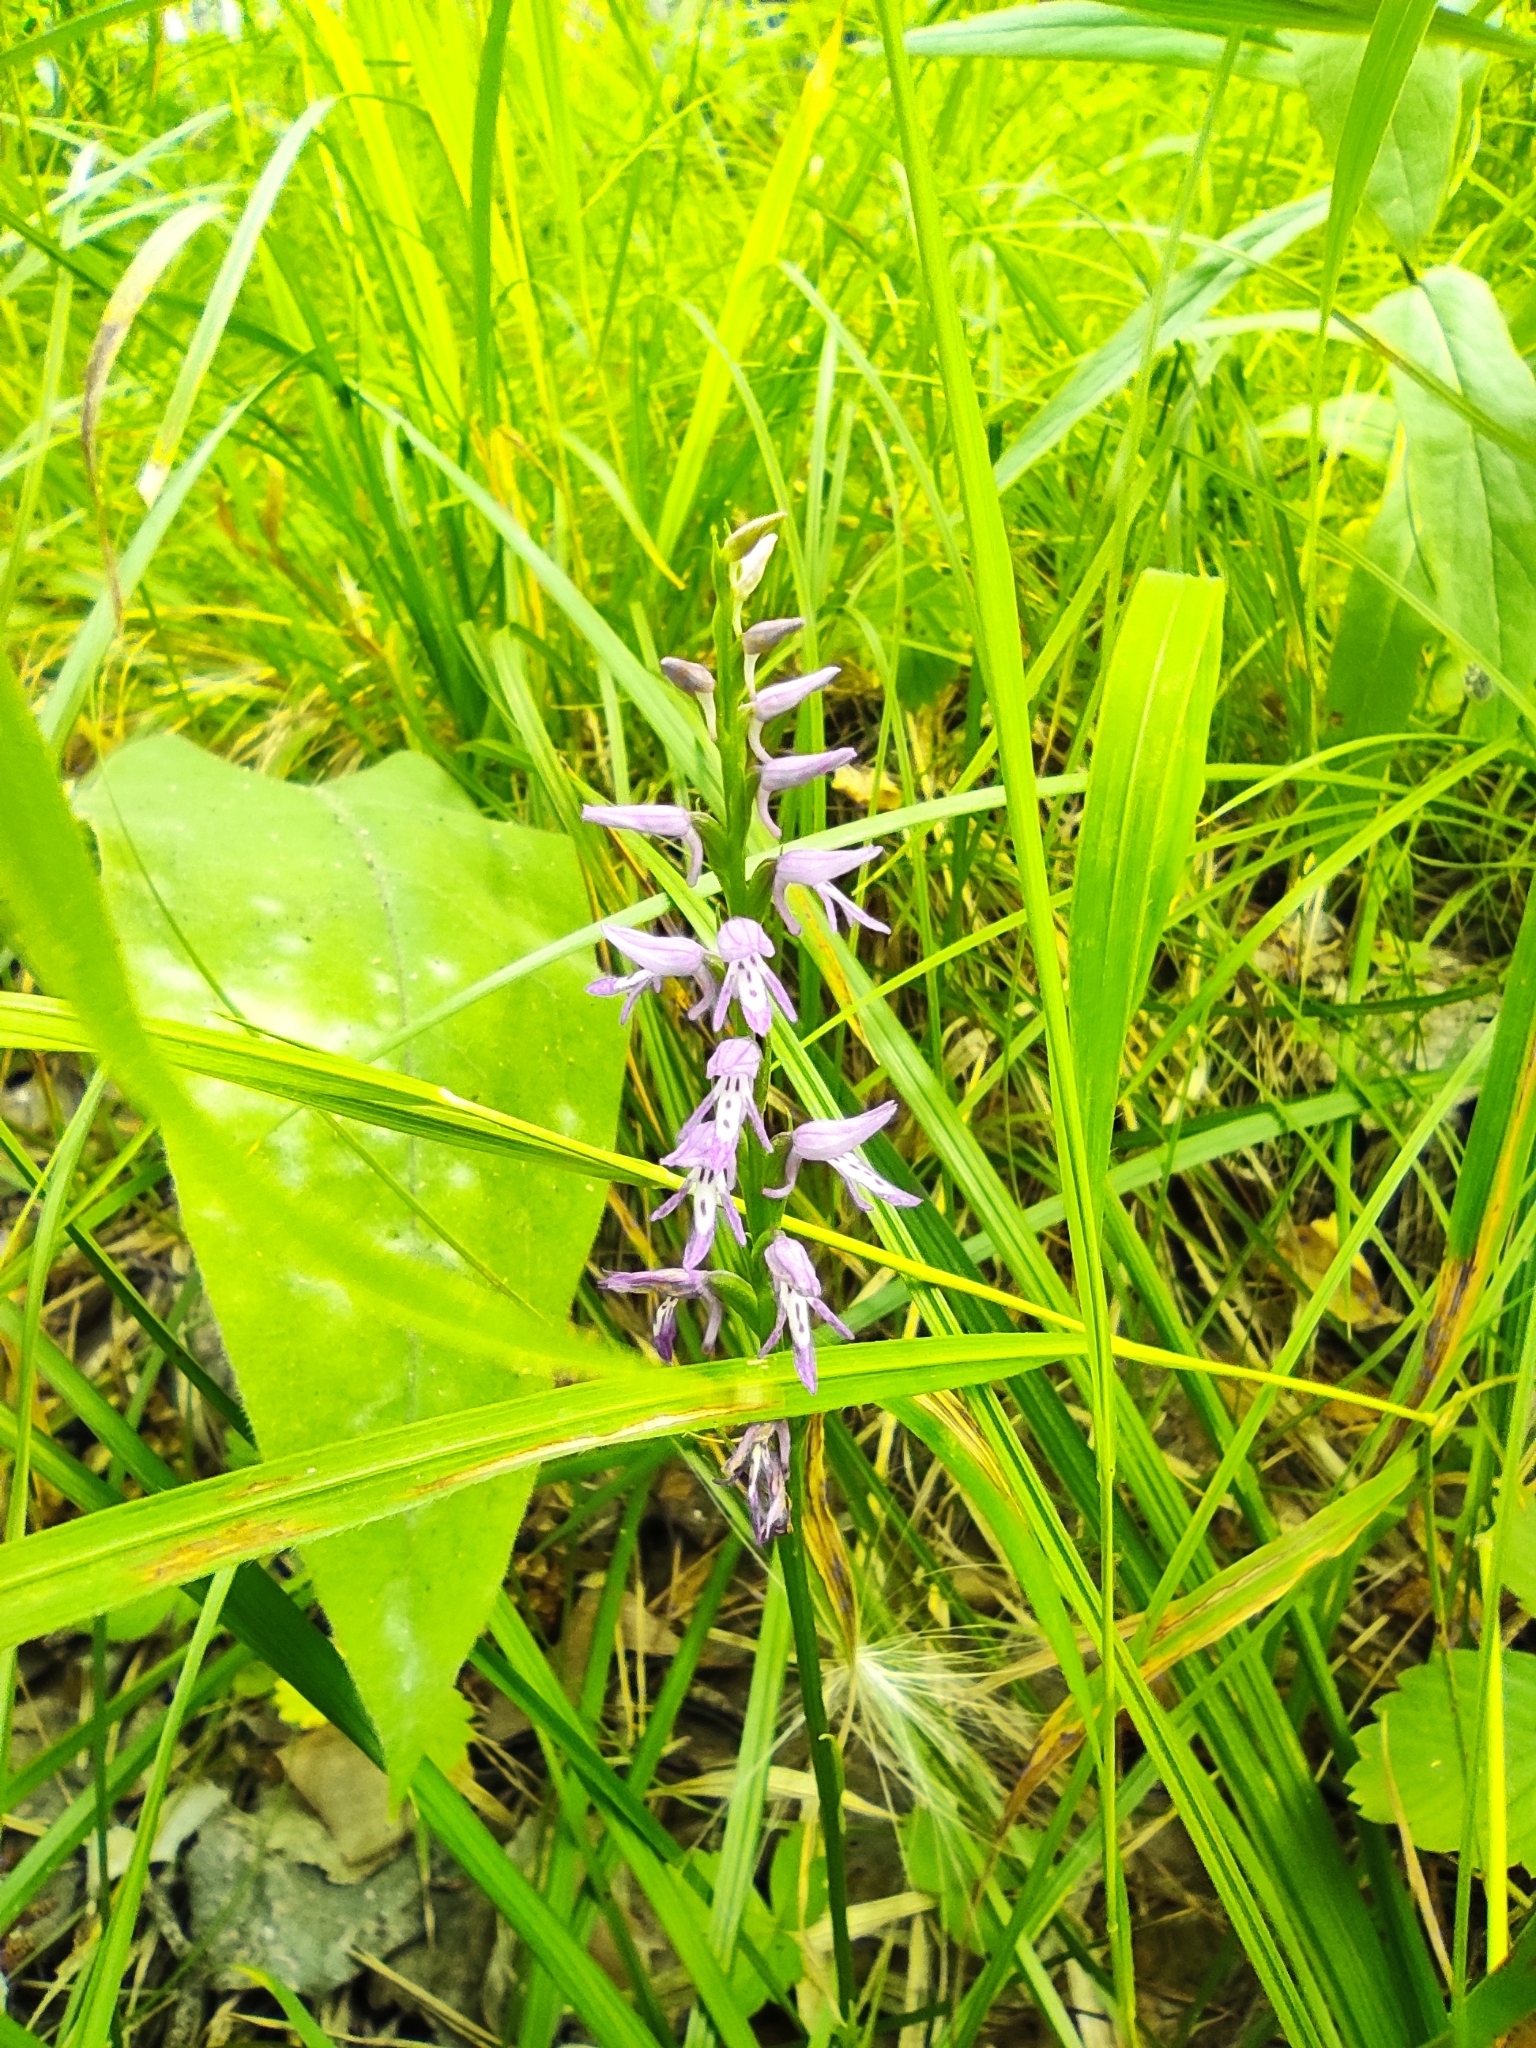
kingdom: Plantae
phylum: Tracheophyta
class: Liliopsida
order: Asparagales
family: Orchidaceae
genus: Hemipilia
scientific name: Hemipilia cucullata
